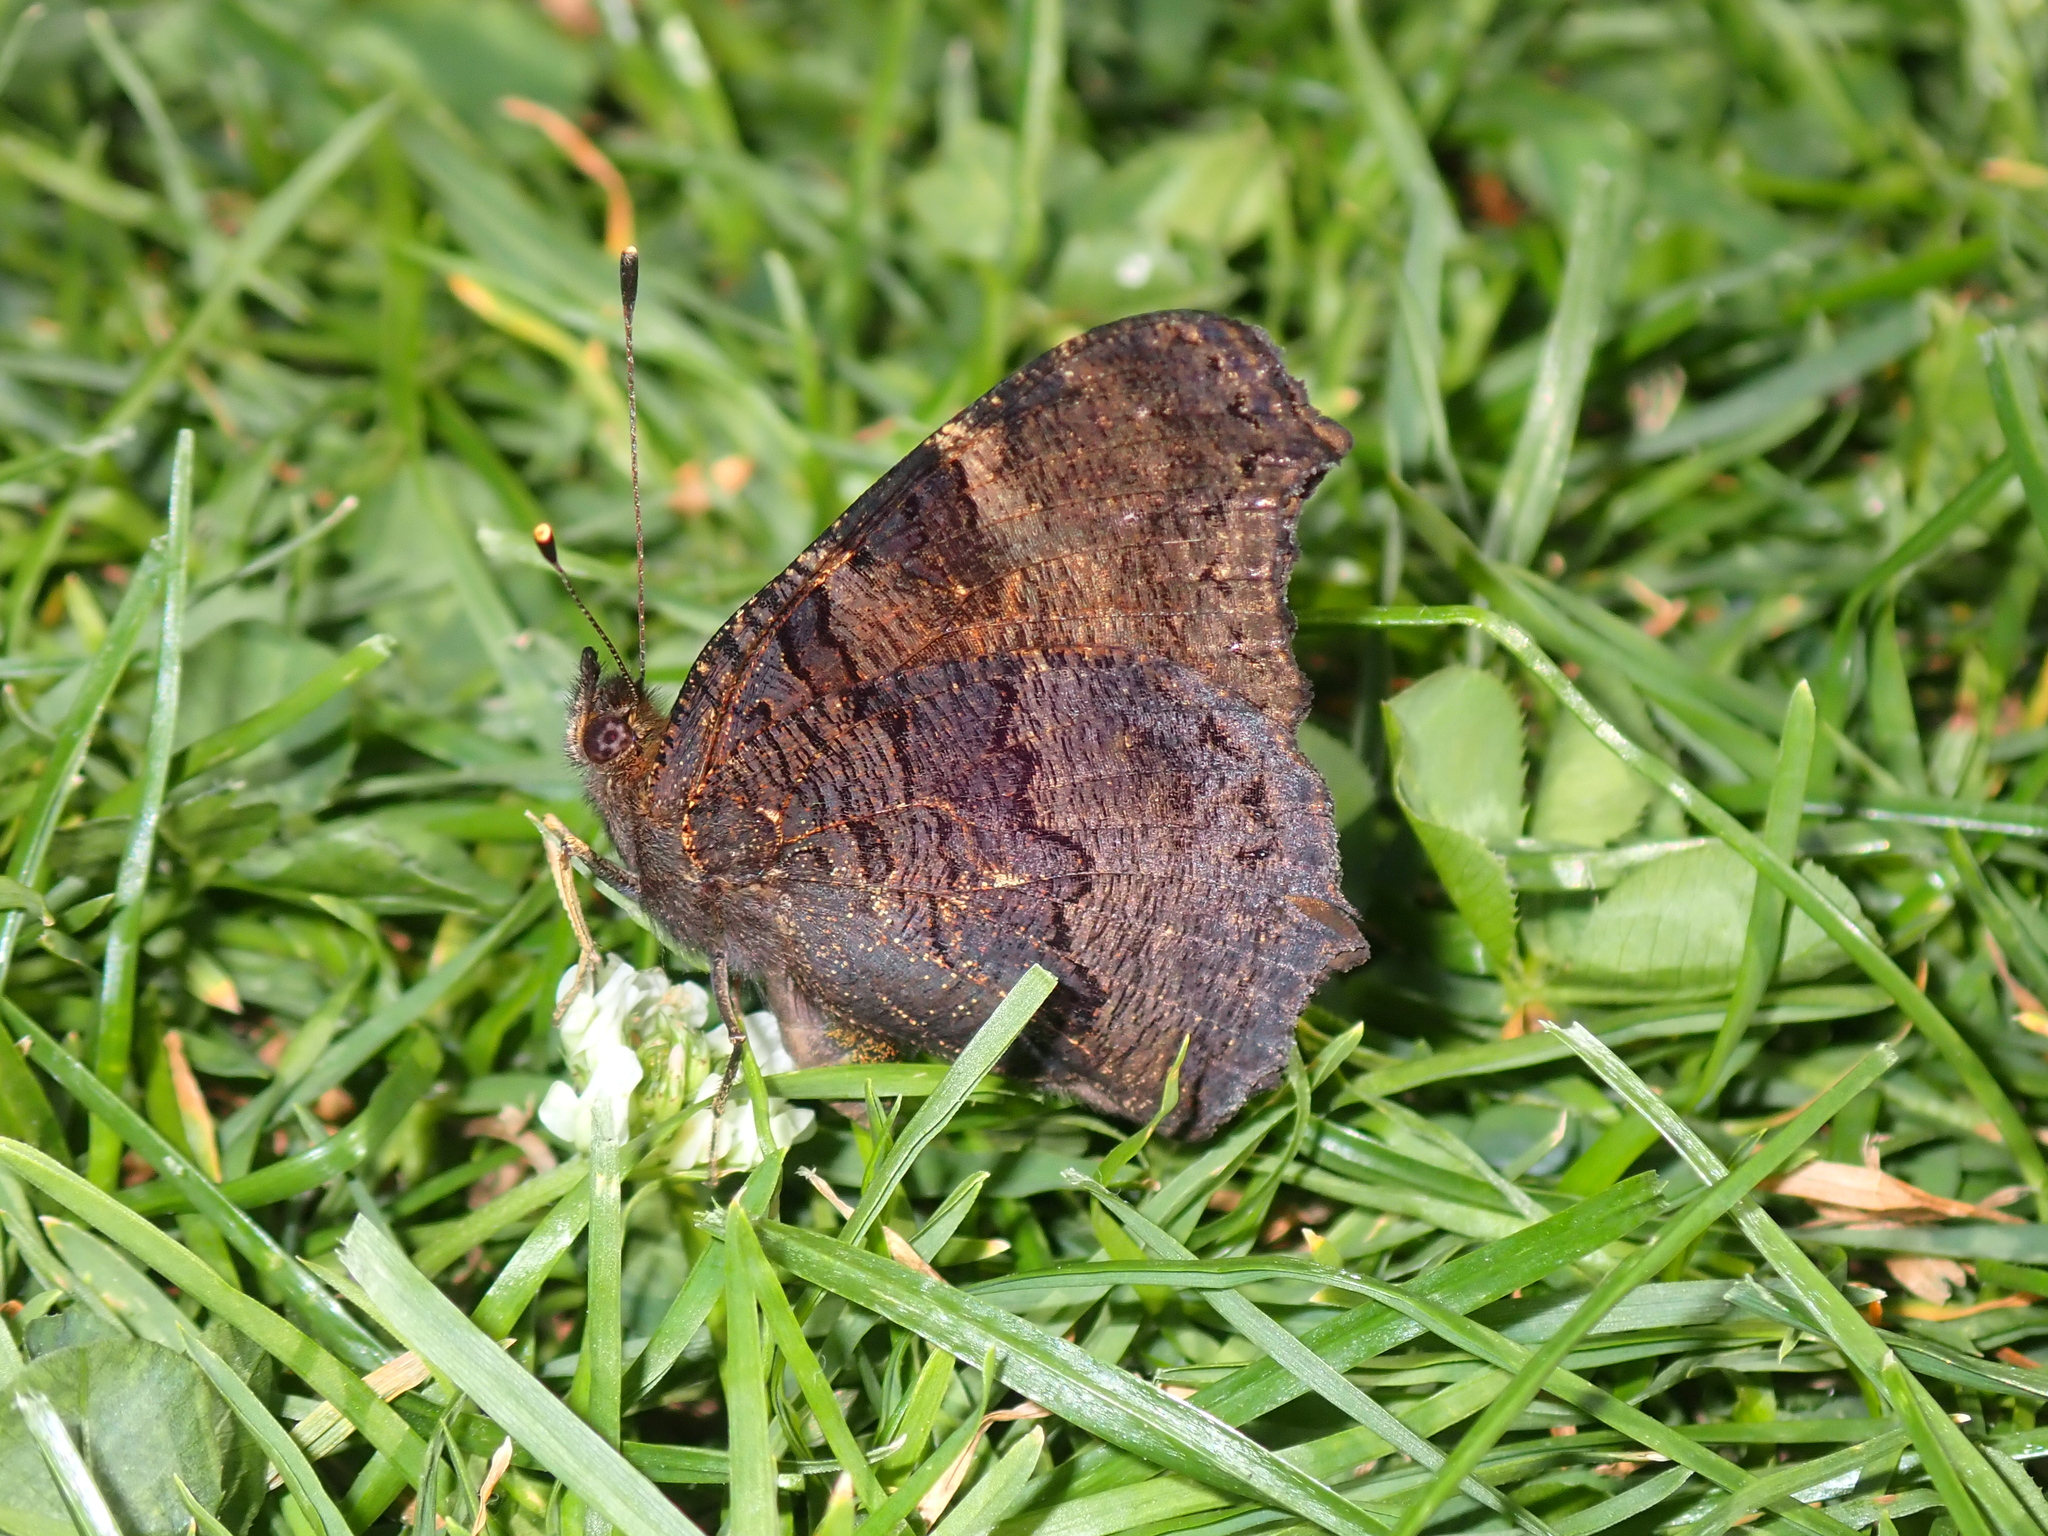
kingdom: Animalia
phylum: Arthropoda
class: Insecta
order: Lepidoptera
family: Nymphalidae
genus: Aglais
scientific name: Aglais io
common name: Peacock
